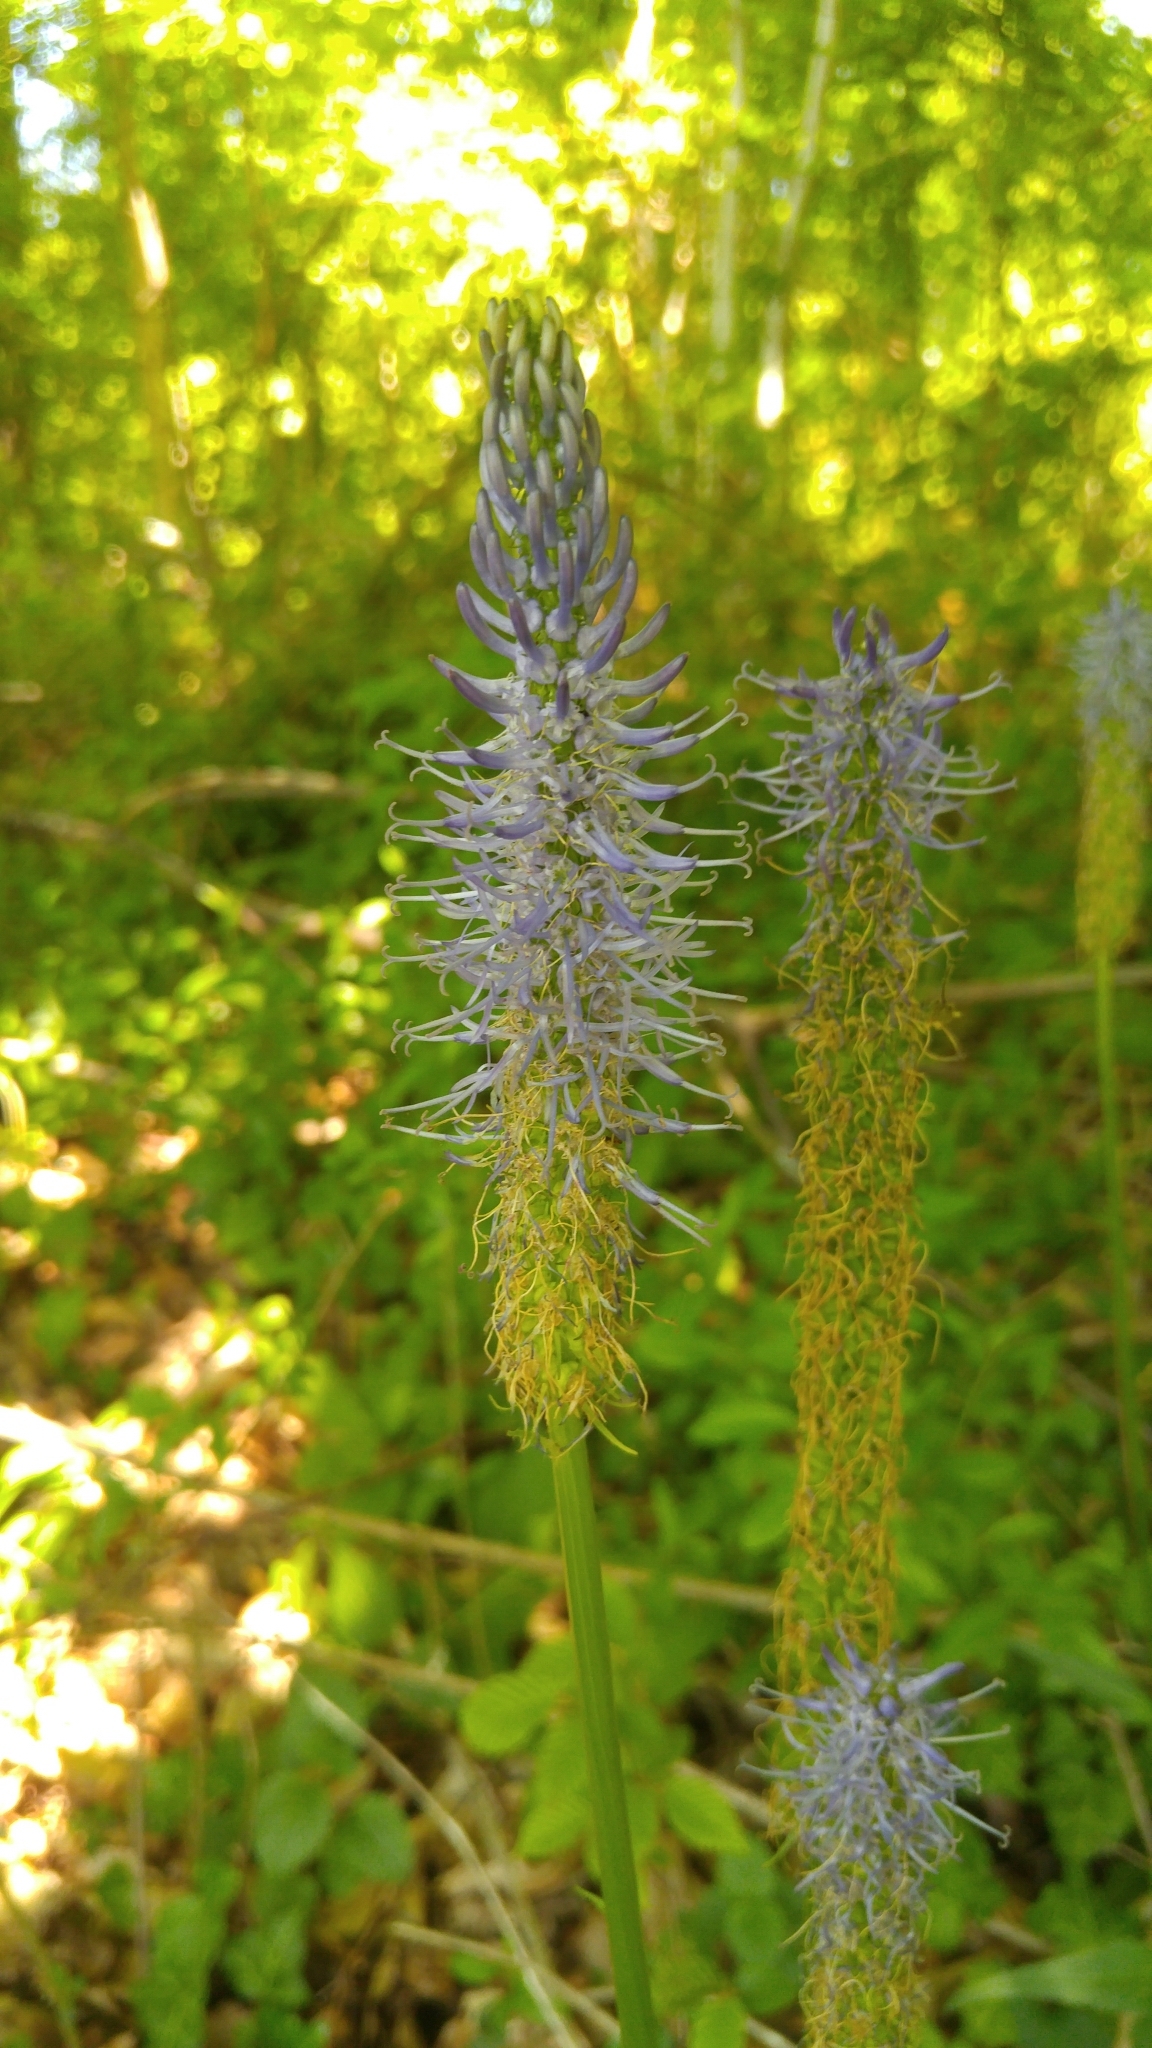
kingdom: Plantae
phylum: Tracheophyta
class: Magnoliopsida
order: Asterales
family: Campanulaceae
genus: Phyteuma
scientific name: Phyteuma spicatum
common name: Spiked rampion
